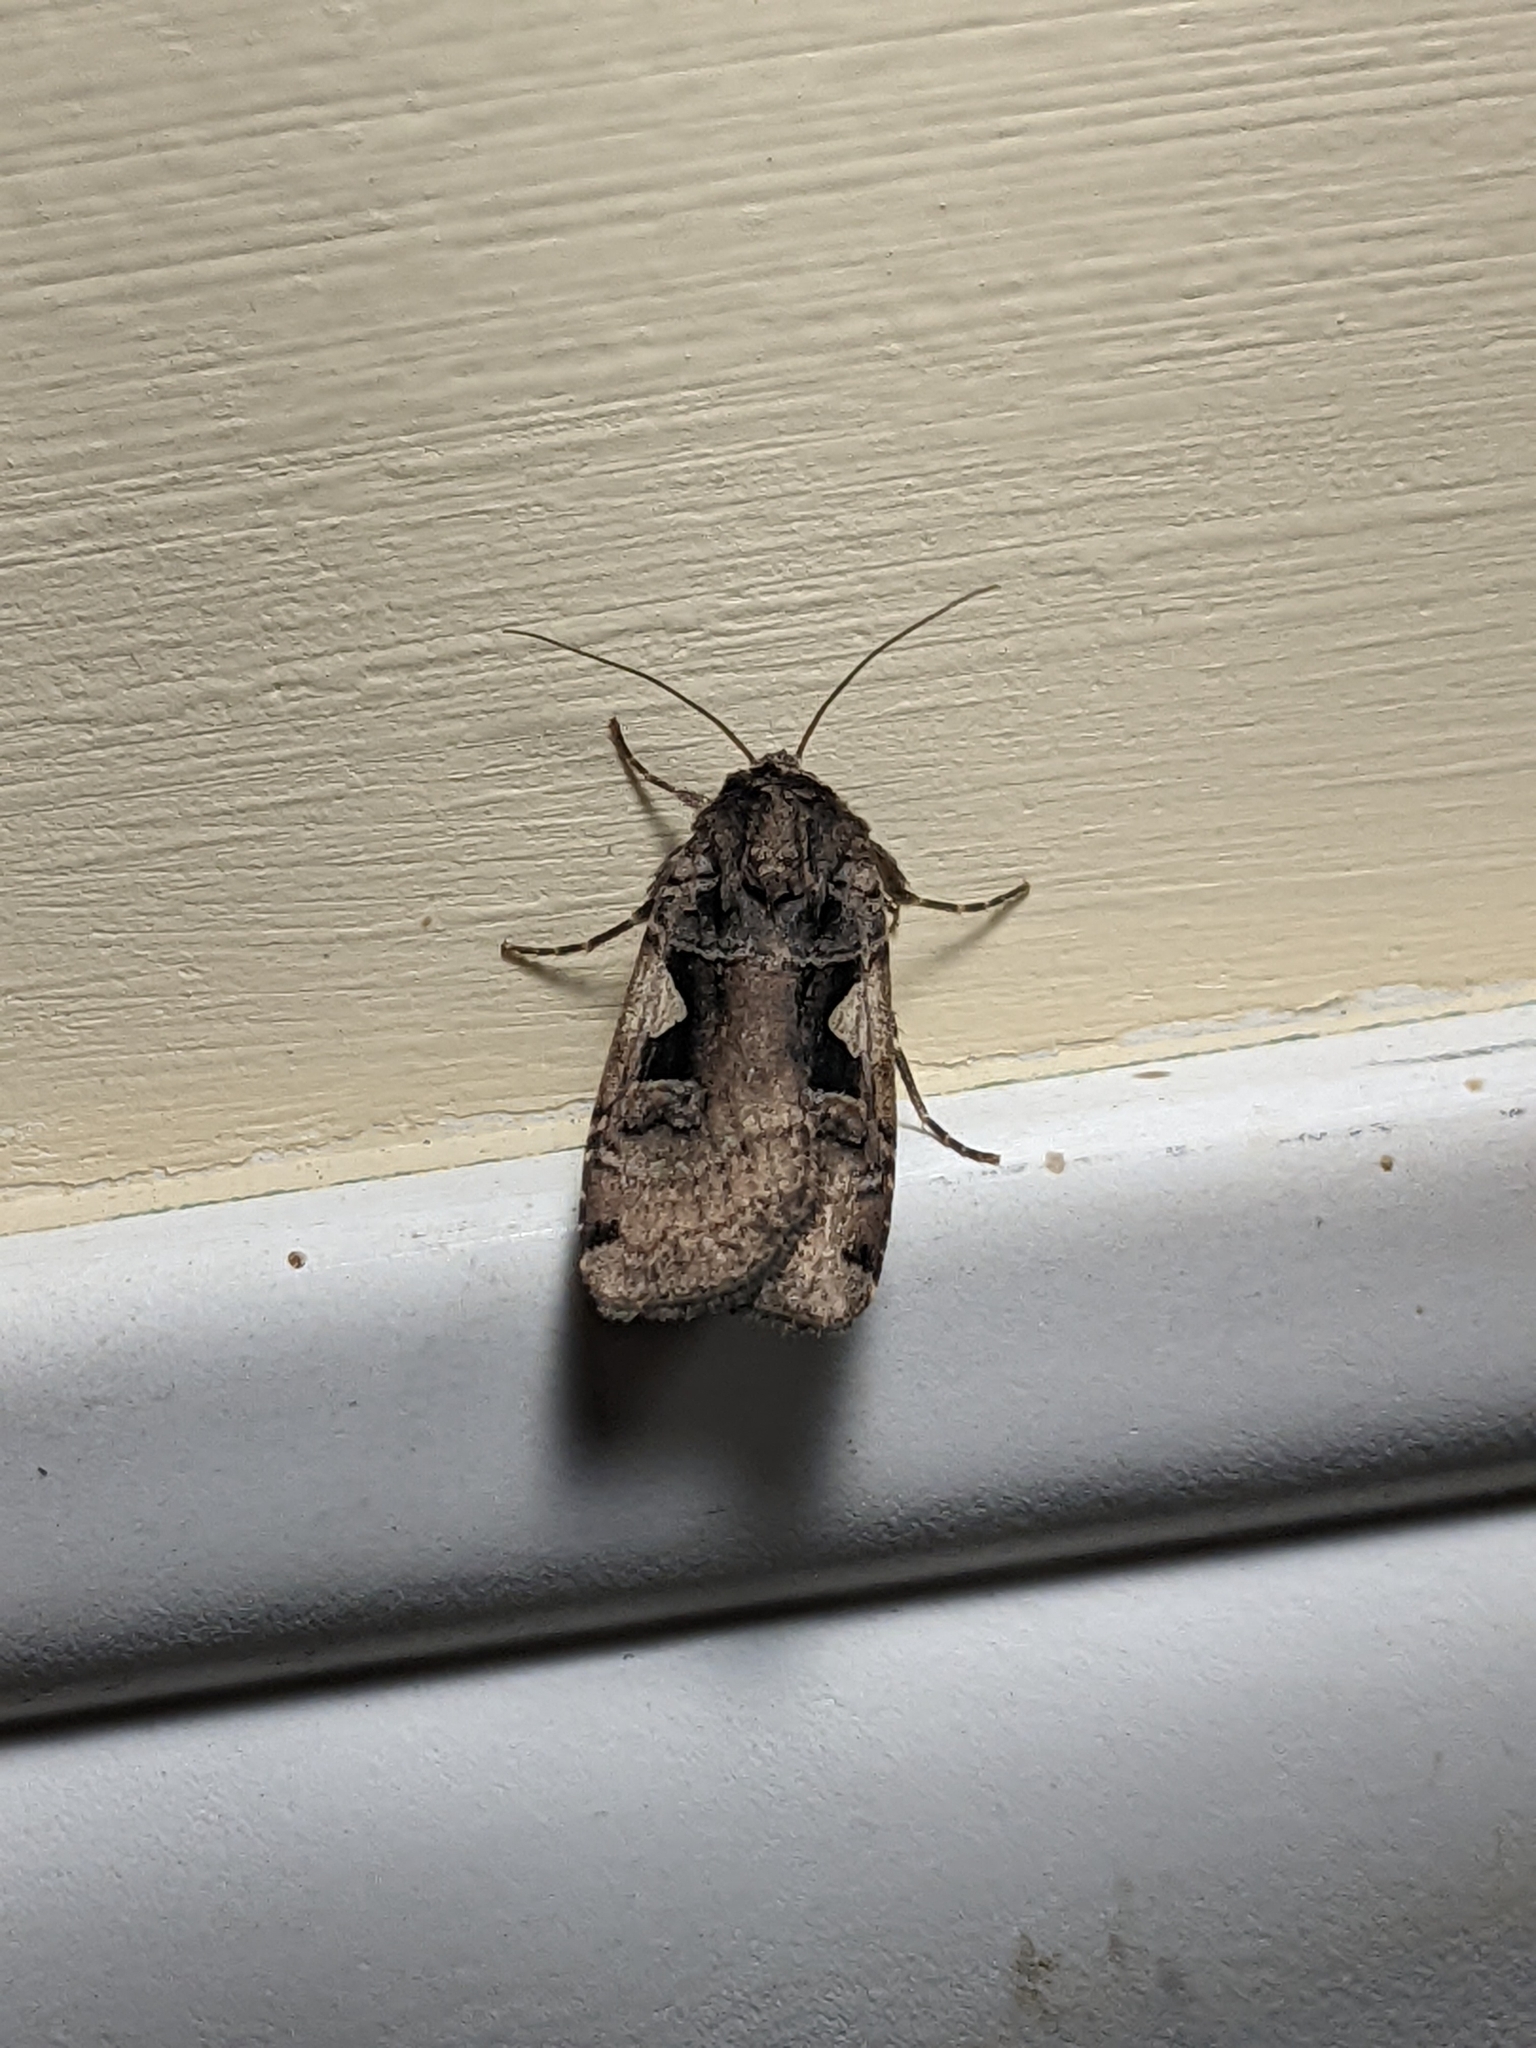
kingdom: Animalia
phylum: Arthropoda
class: Insecta
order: Lepidoptera
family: Noctuidae
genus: Xestia
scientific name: Xestia
